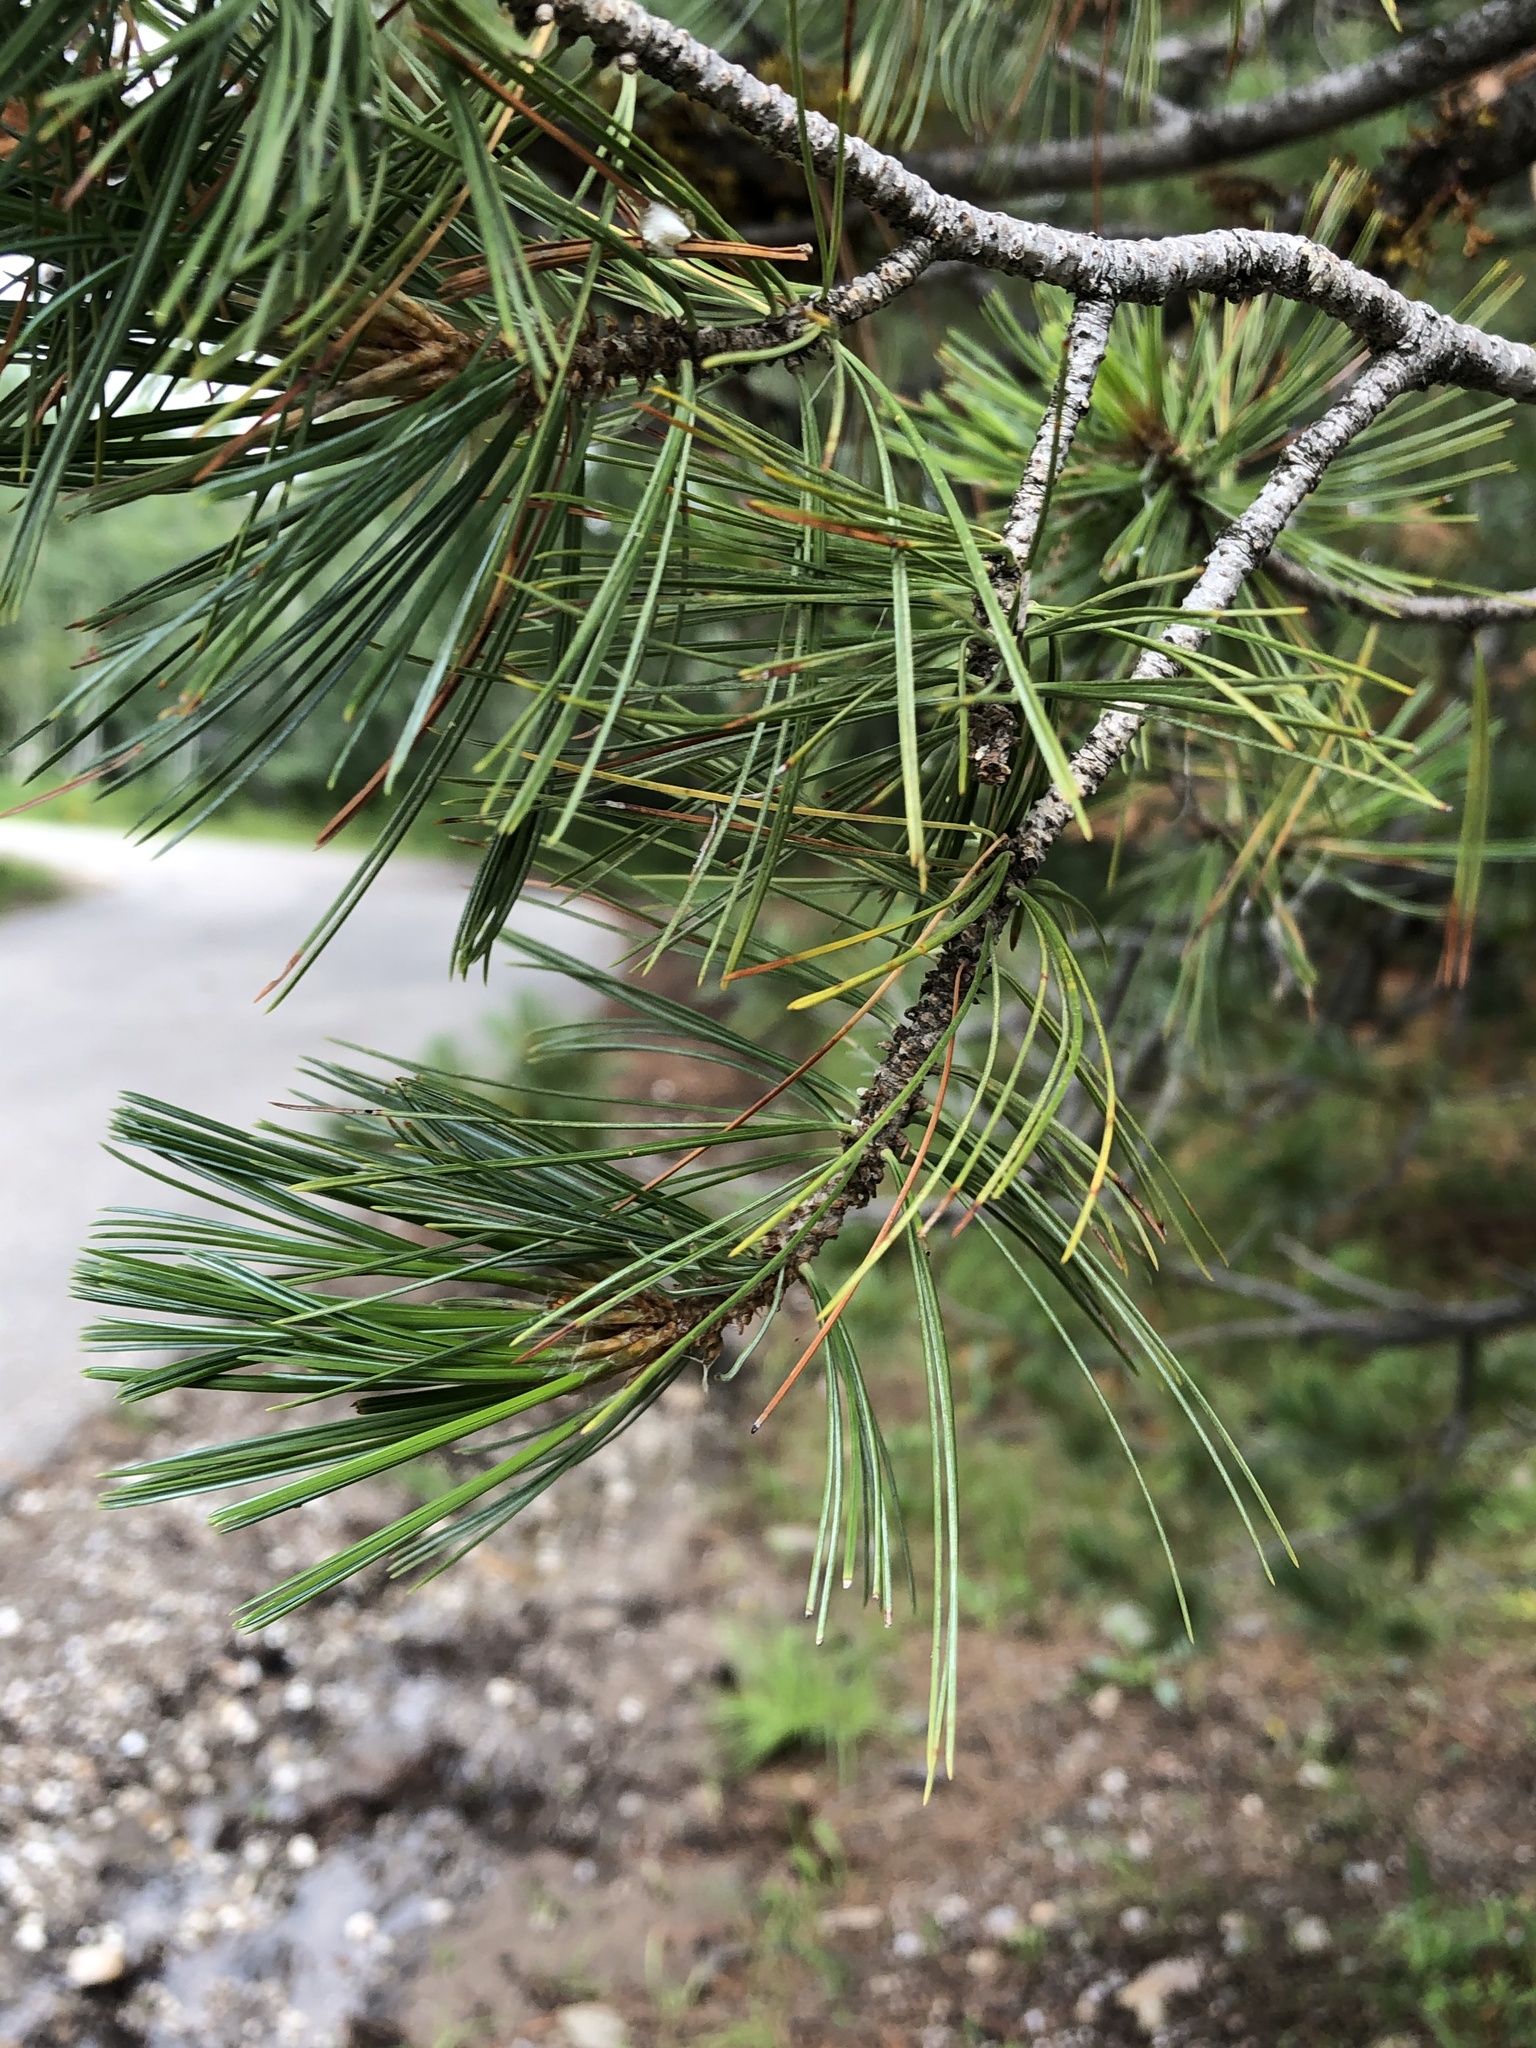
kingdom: Plantae
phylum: Tracheophyta
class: Pinopsida
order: Pinales
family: Pinaceae
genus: Pinus
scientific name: Pinus leiophylla
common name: Chihuahua pine
